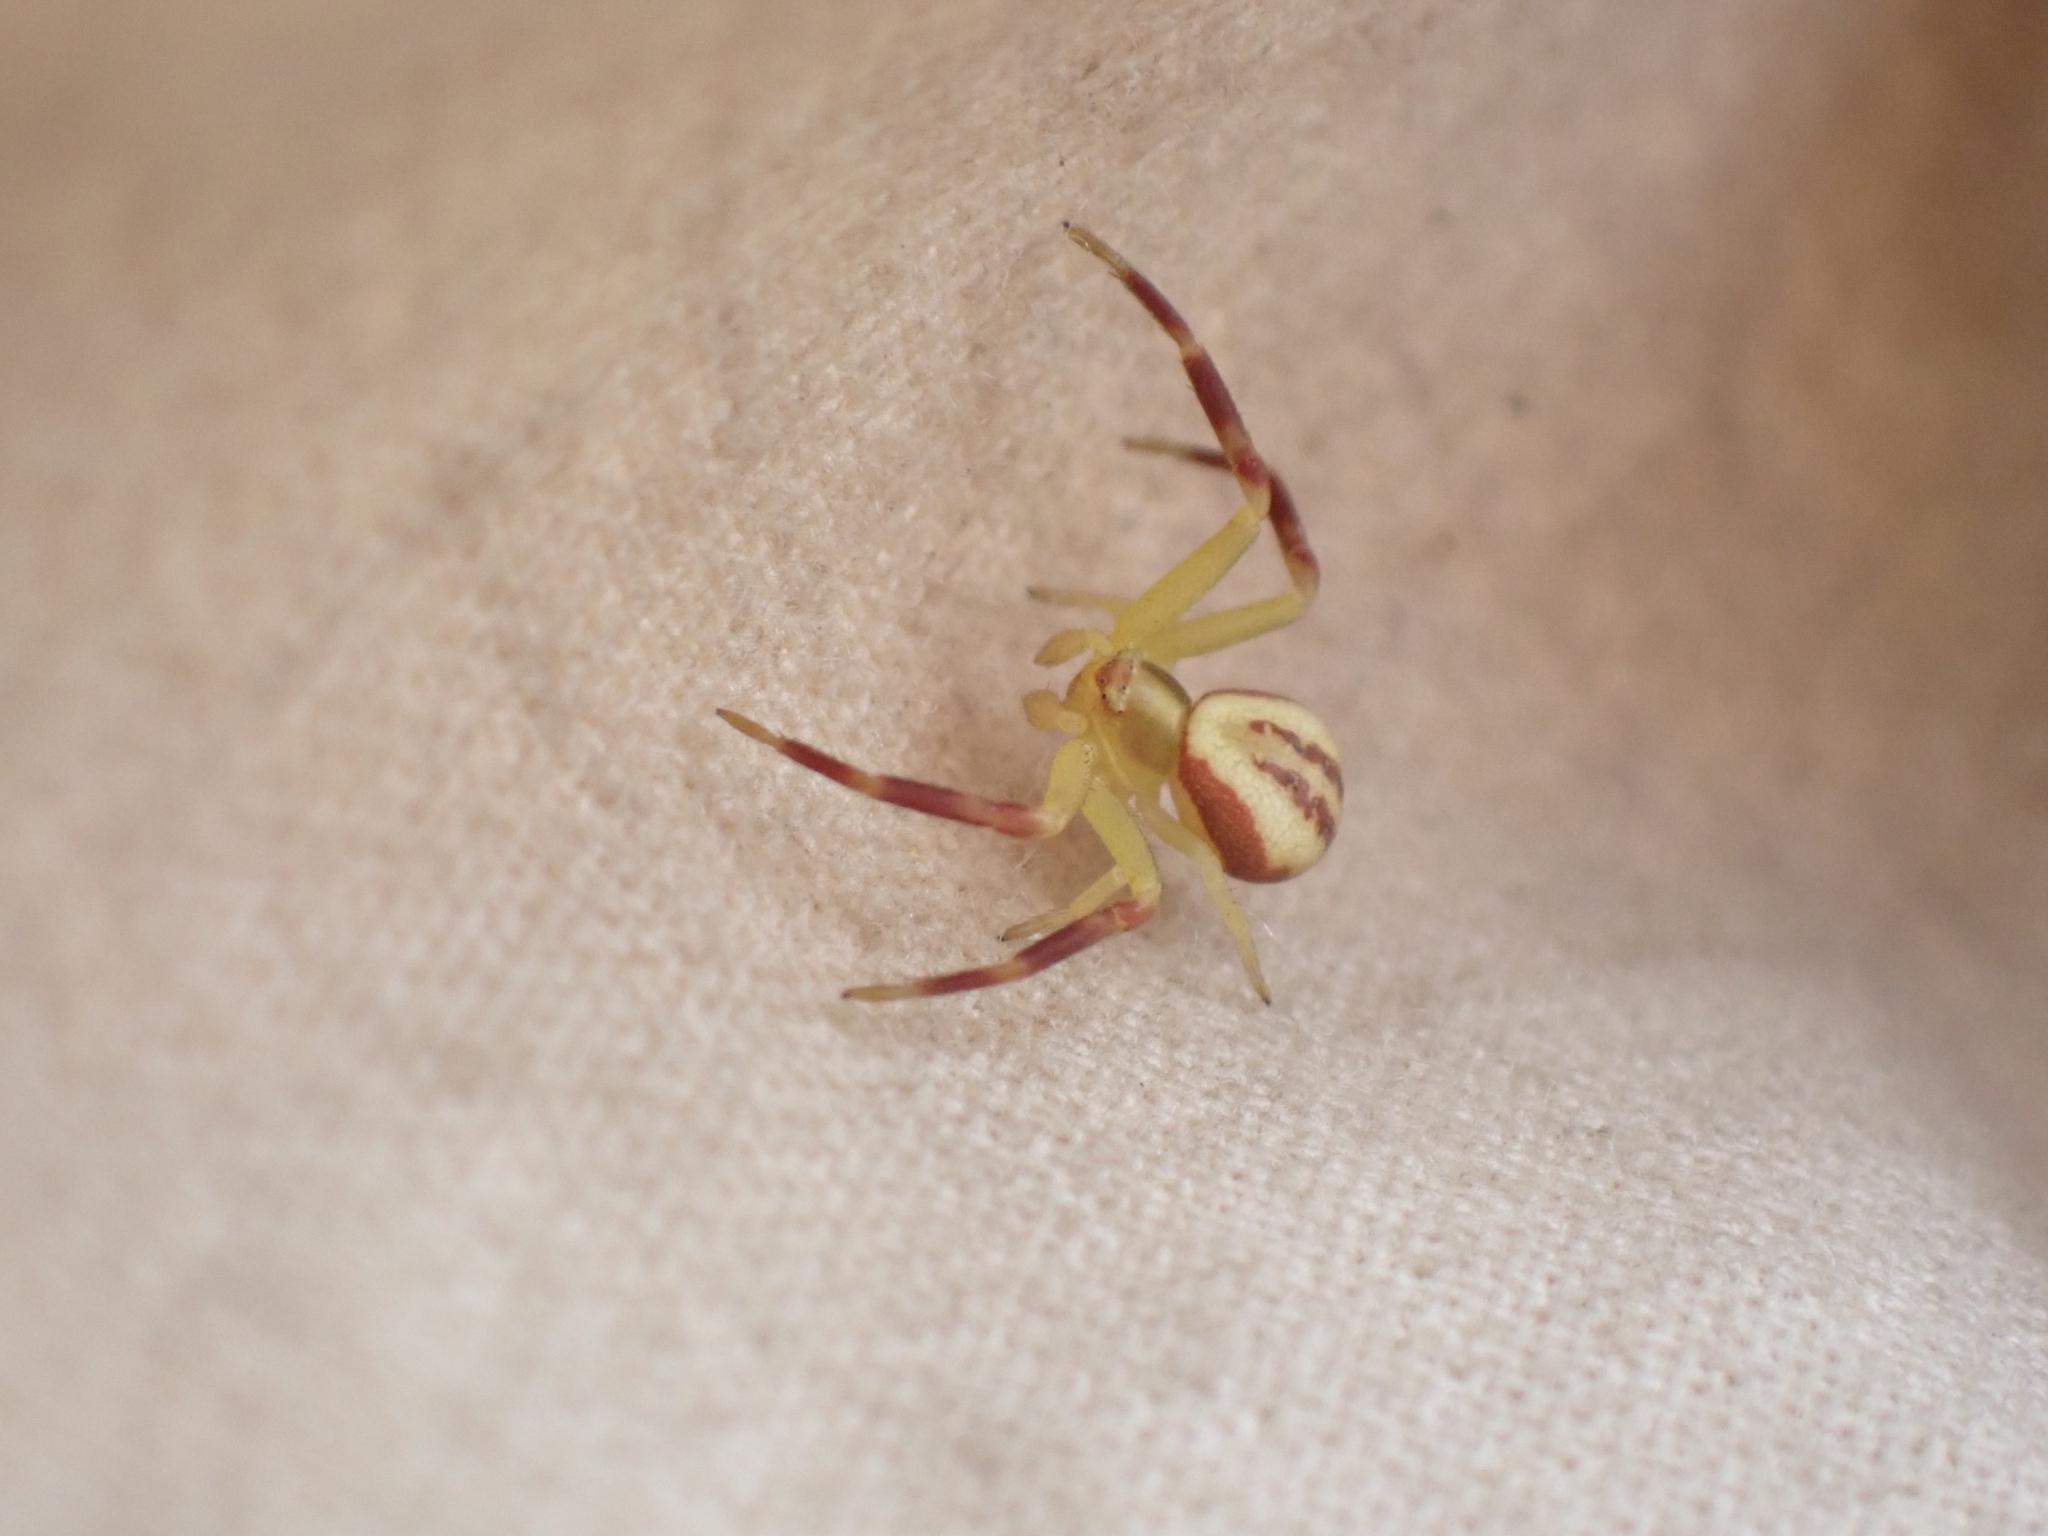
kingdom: Animalia
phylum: Arthropoda
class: Arachnida
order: Araneae
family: Thomisidae
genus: Misumena
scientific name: Misumena vatia
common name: Goldenrod crab spider
